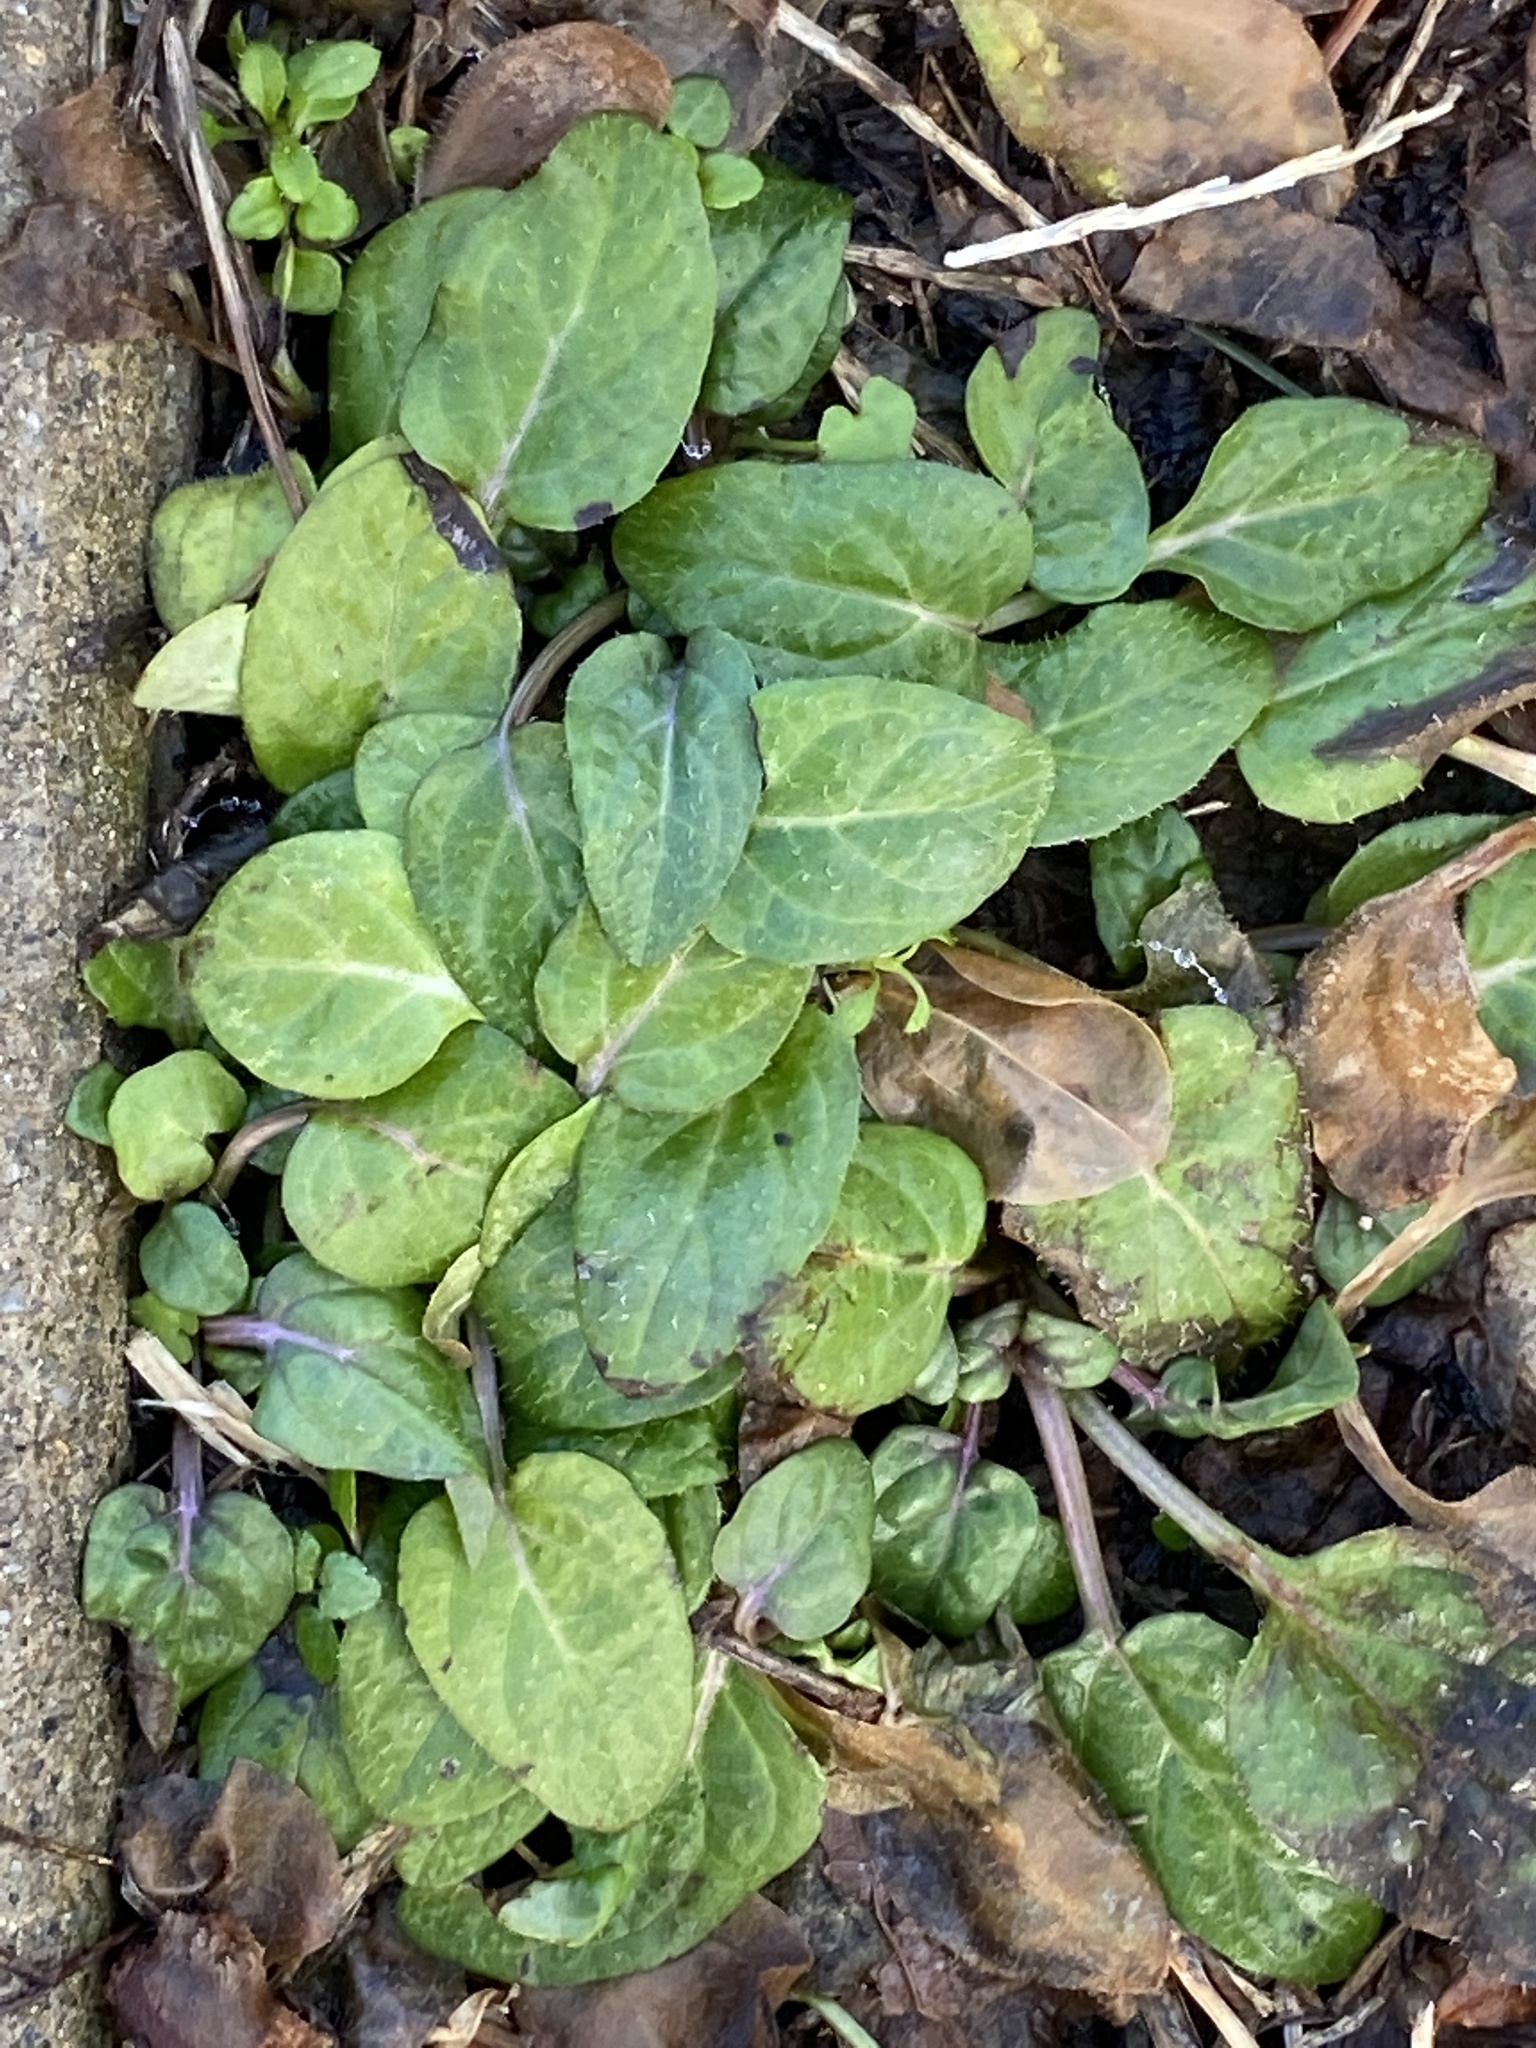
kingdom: Plantae
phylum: Tracheophyta
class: Magnoliopsida
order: Lamiales
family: Lamiaceae
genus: Prunella
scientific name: Prunella vulgaris
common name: Heal-all
